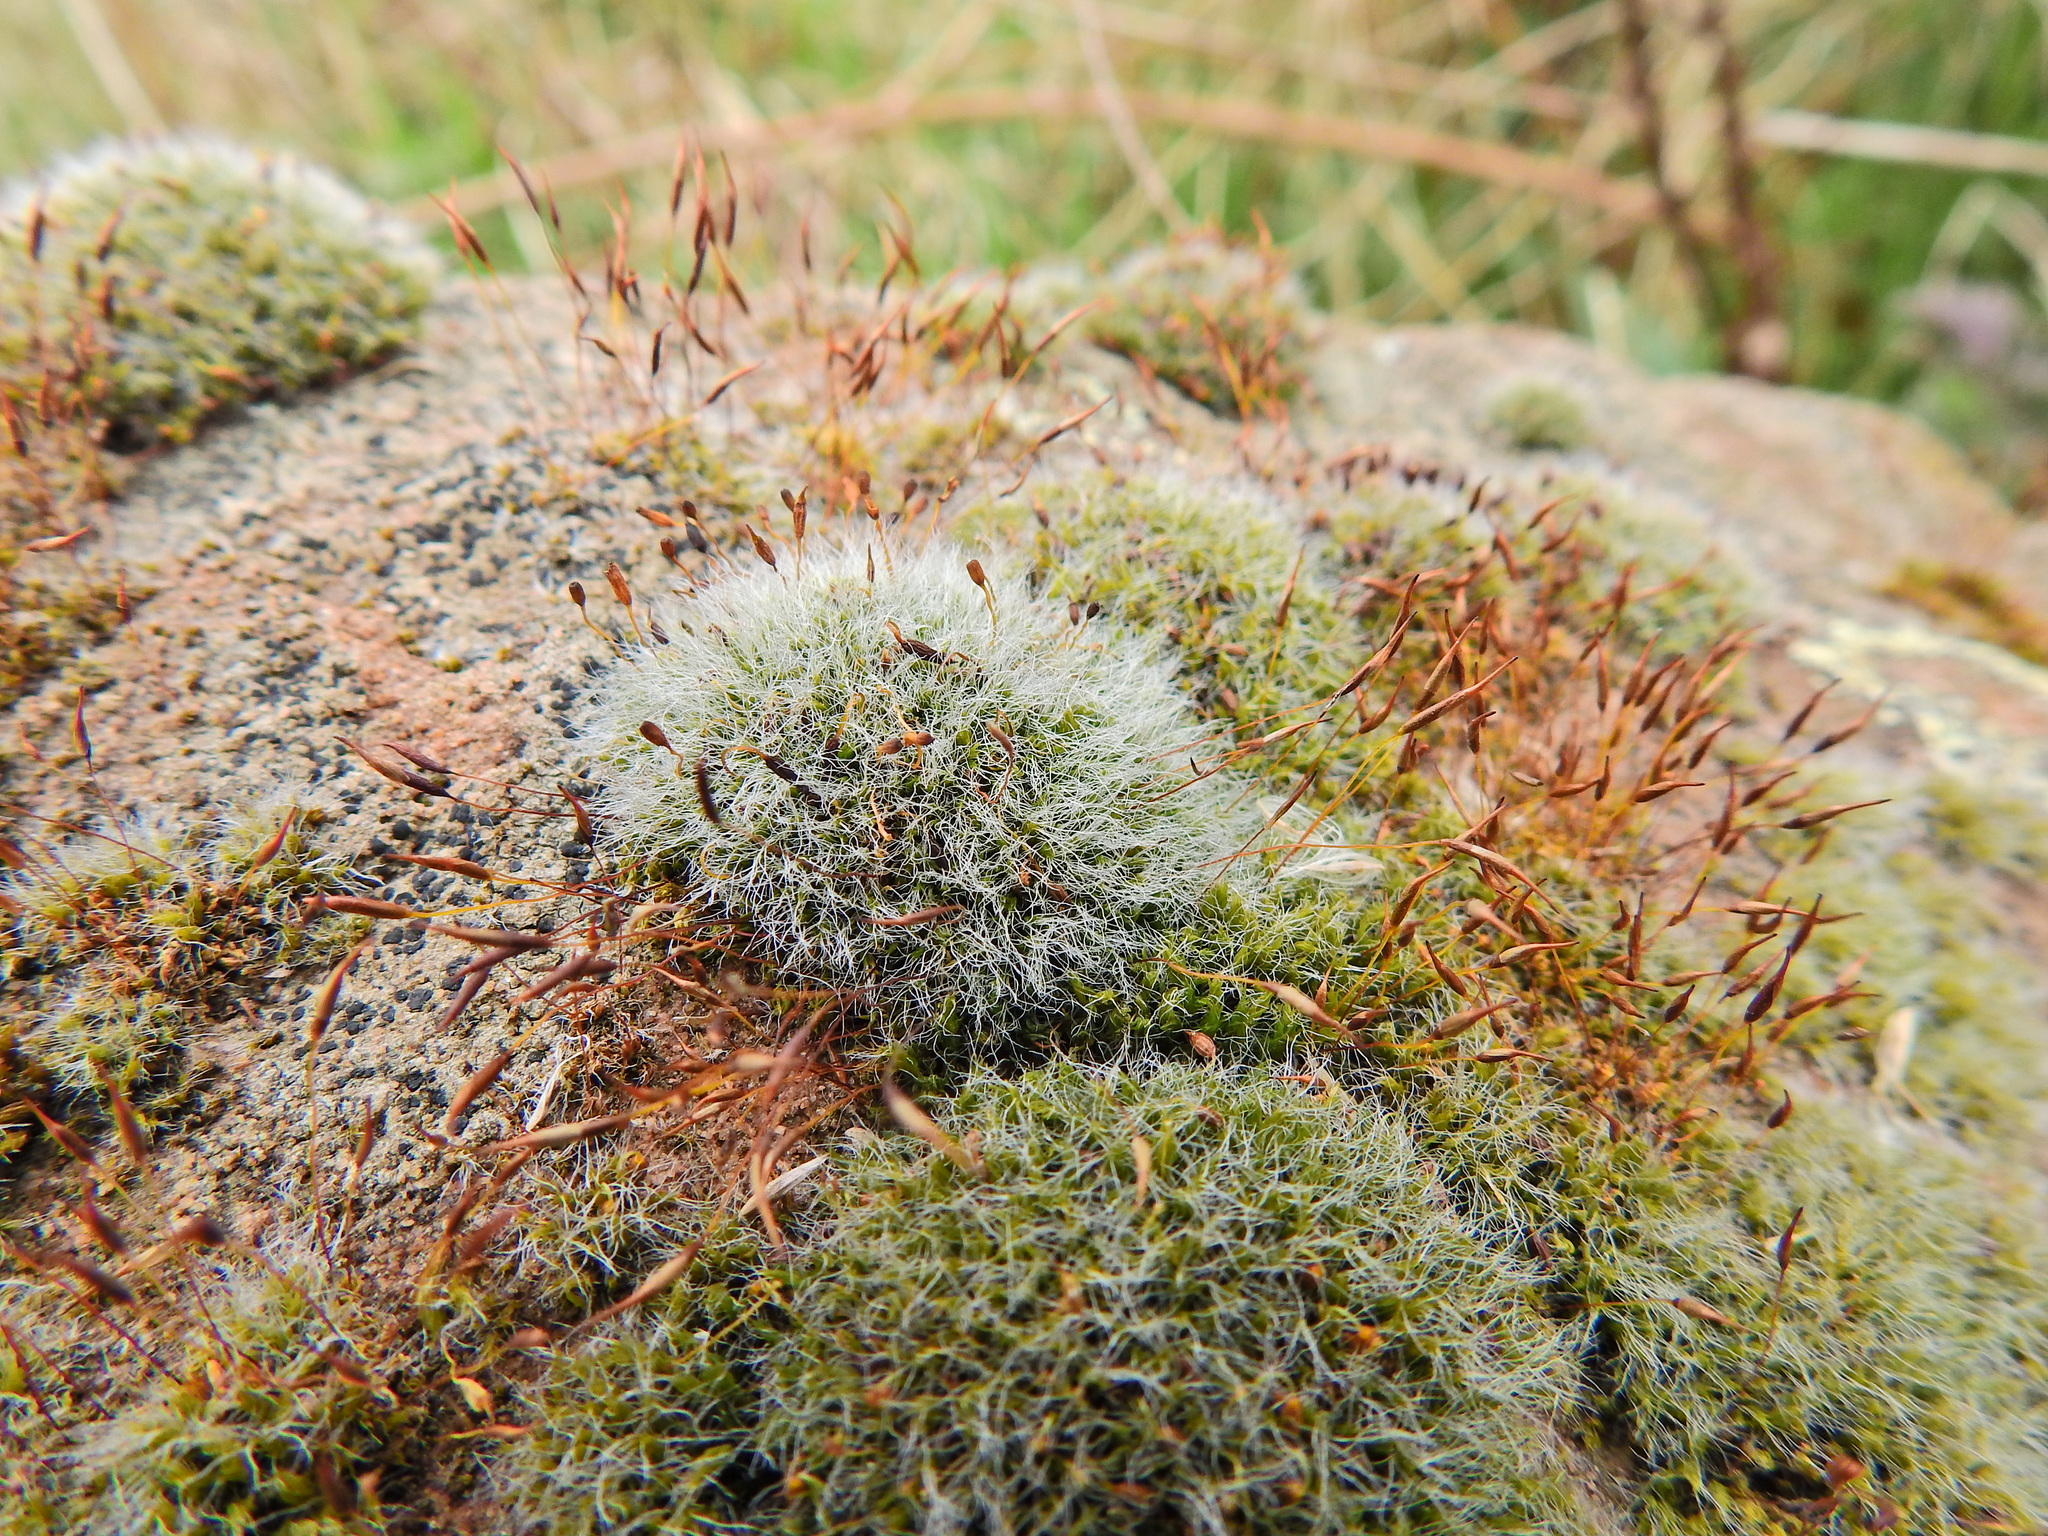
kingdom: Plantae
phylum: Bryophyta
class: Bryopsida
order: Pottiales
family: Pottiaceae
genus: Tortula
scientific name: Tortula muralis
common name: Wall screw-moss
